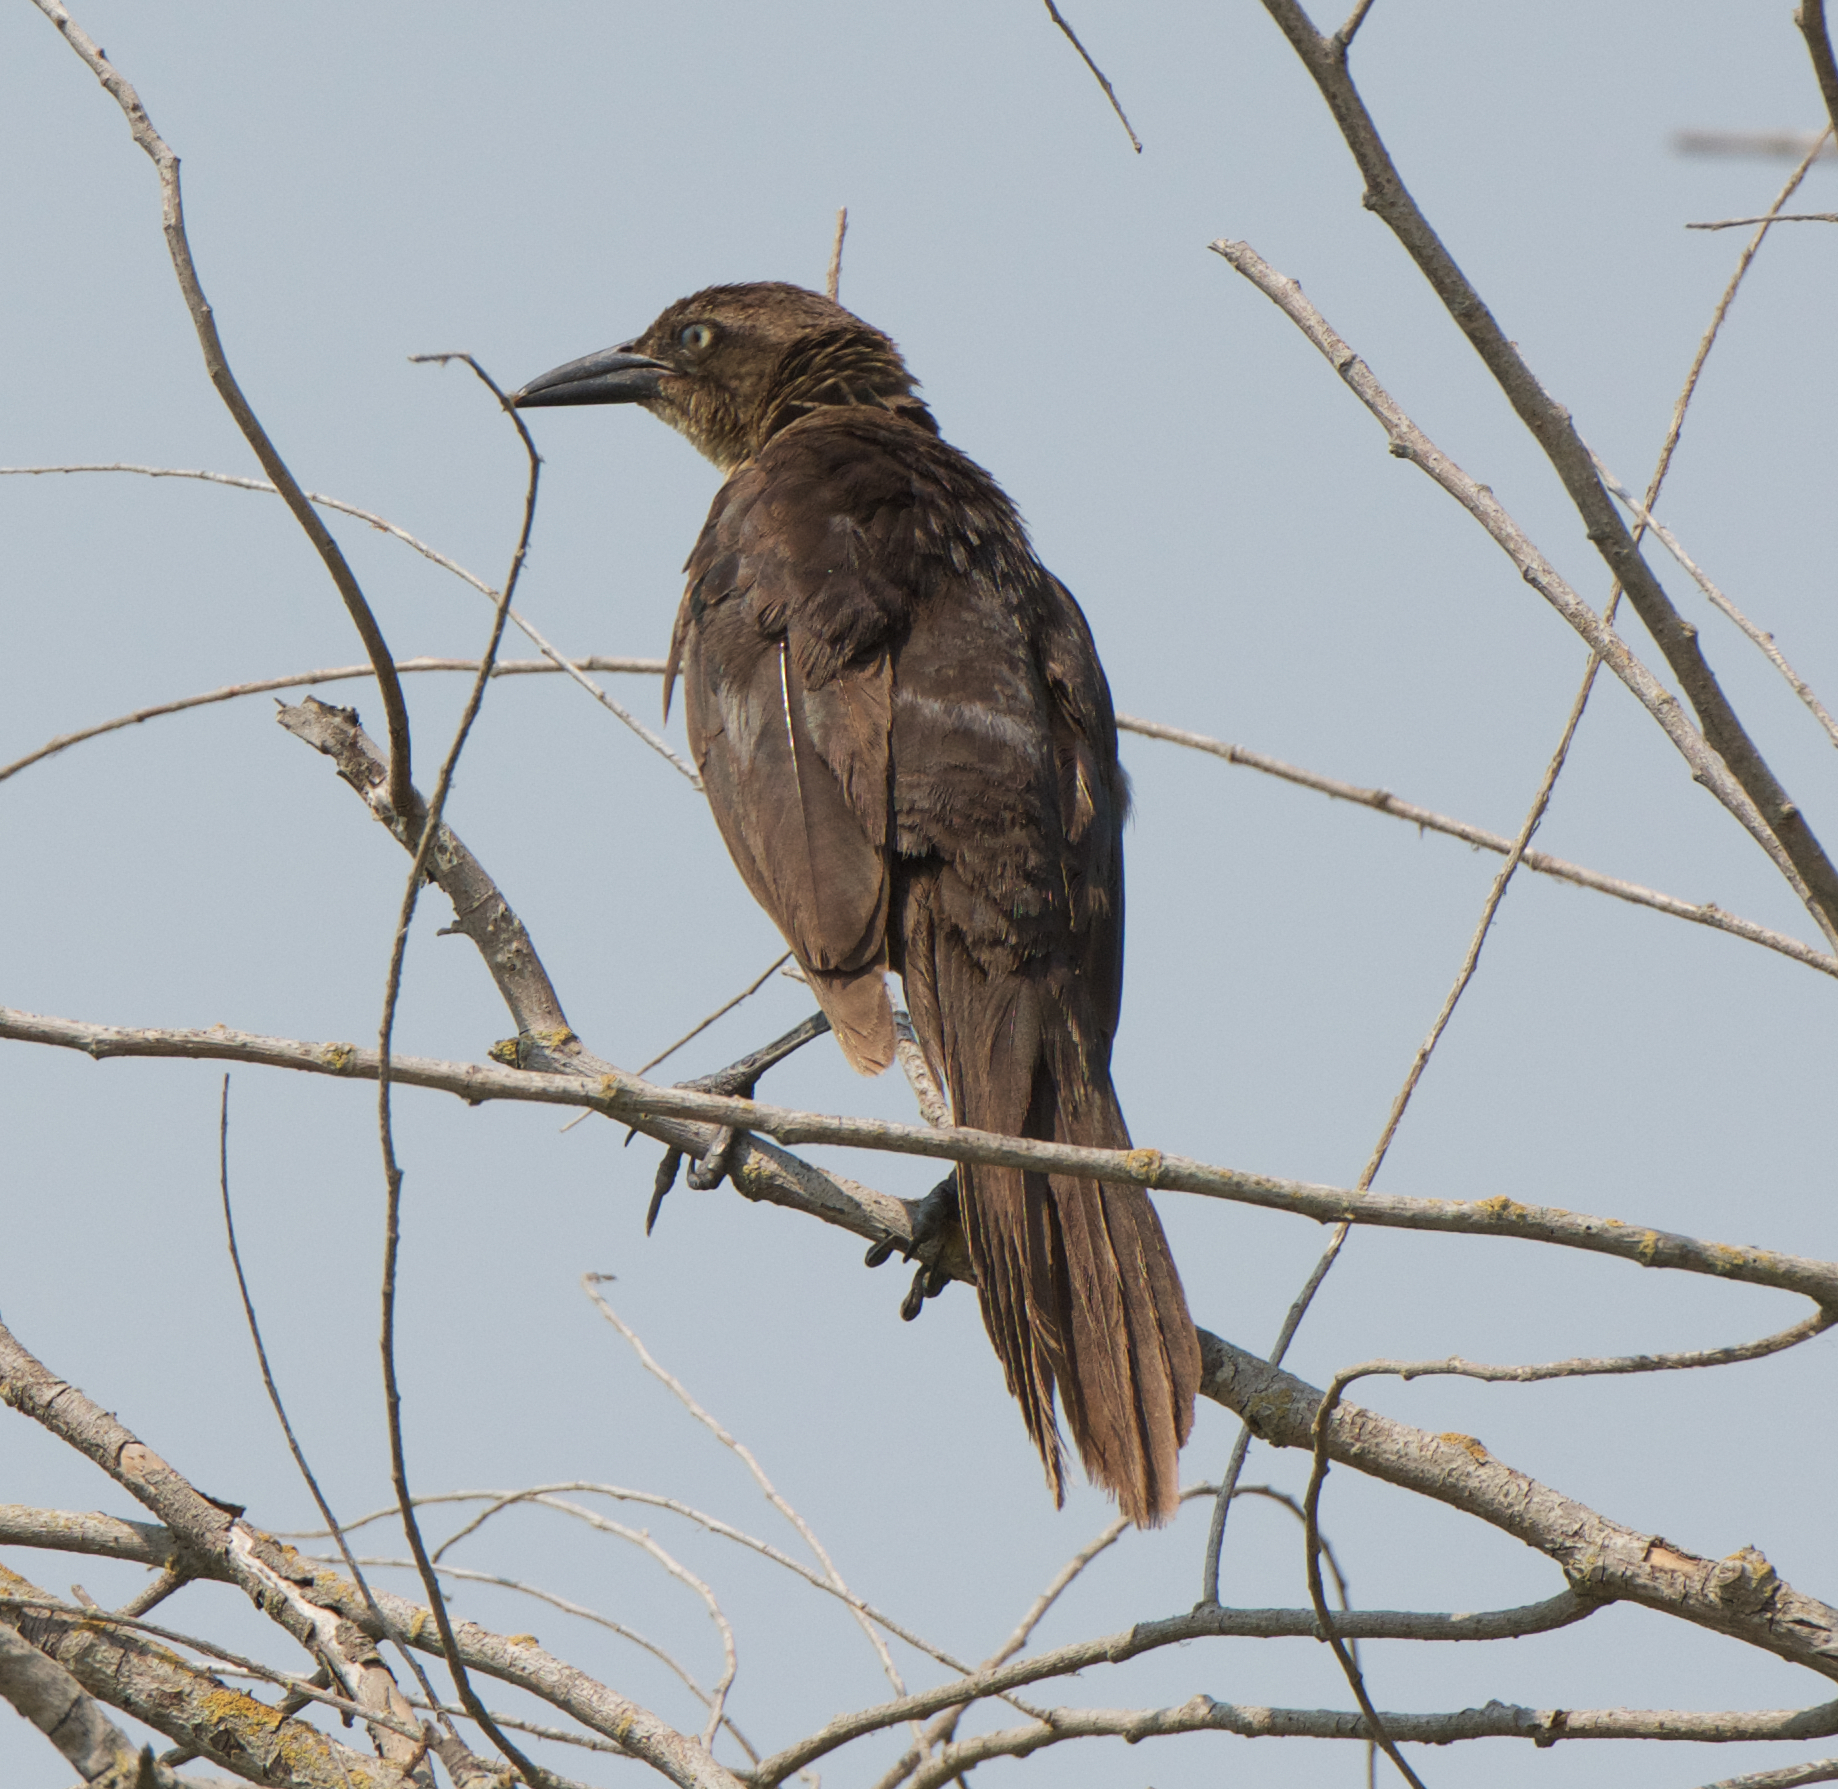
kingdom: Animalia
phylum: Chordata
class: Aves
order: Passeriformes
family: Icteridae
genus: Quiscalus
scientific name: Quiscalus mexicanus
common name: Great-tailed grackle
